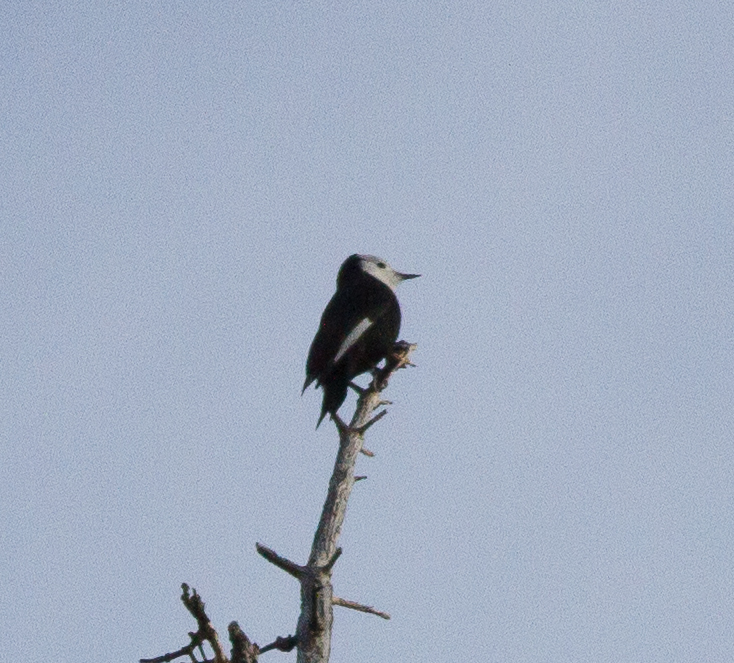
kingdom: Animalia
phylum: Chordata
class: Aves
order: Piciformes
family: Picidae
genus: Leuconotopicus
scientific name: Leuconotopicus albolarvatus
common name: White-headed woodpecker
